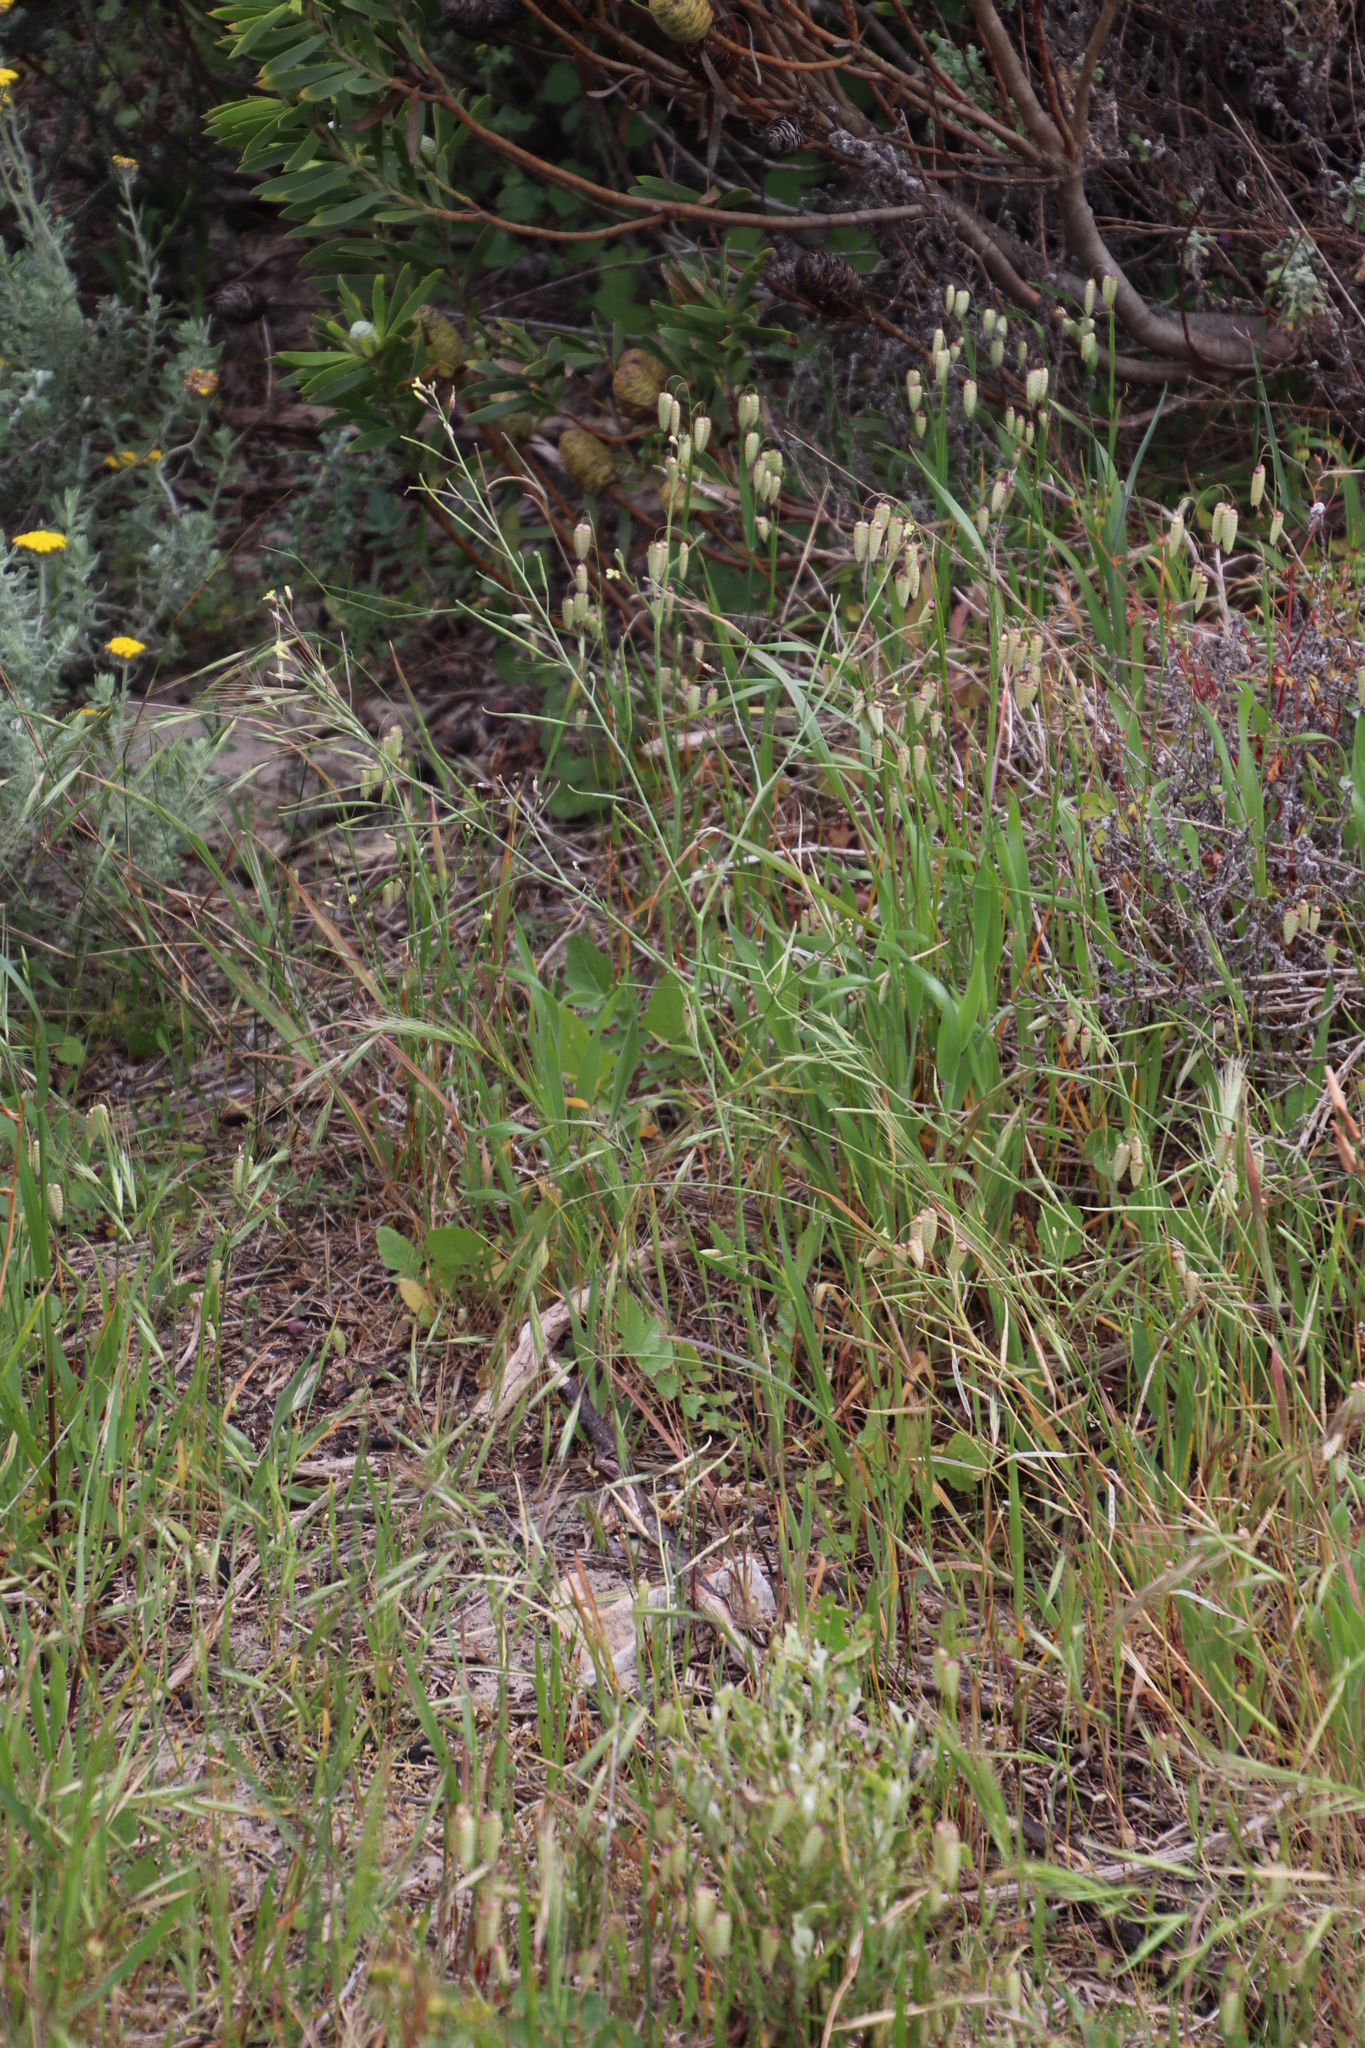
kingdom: Plantae
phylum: Tracheophyta
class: Magnoliopsida
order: Brassicales
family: Brassicaceae
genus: Brassica
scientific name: Brassica tournefortii
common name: Pale cabbage
